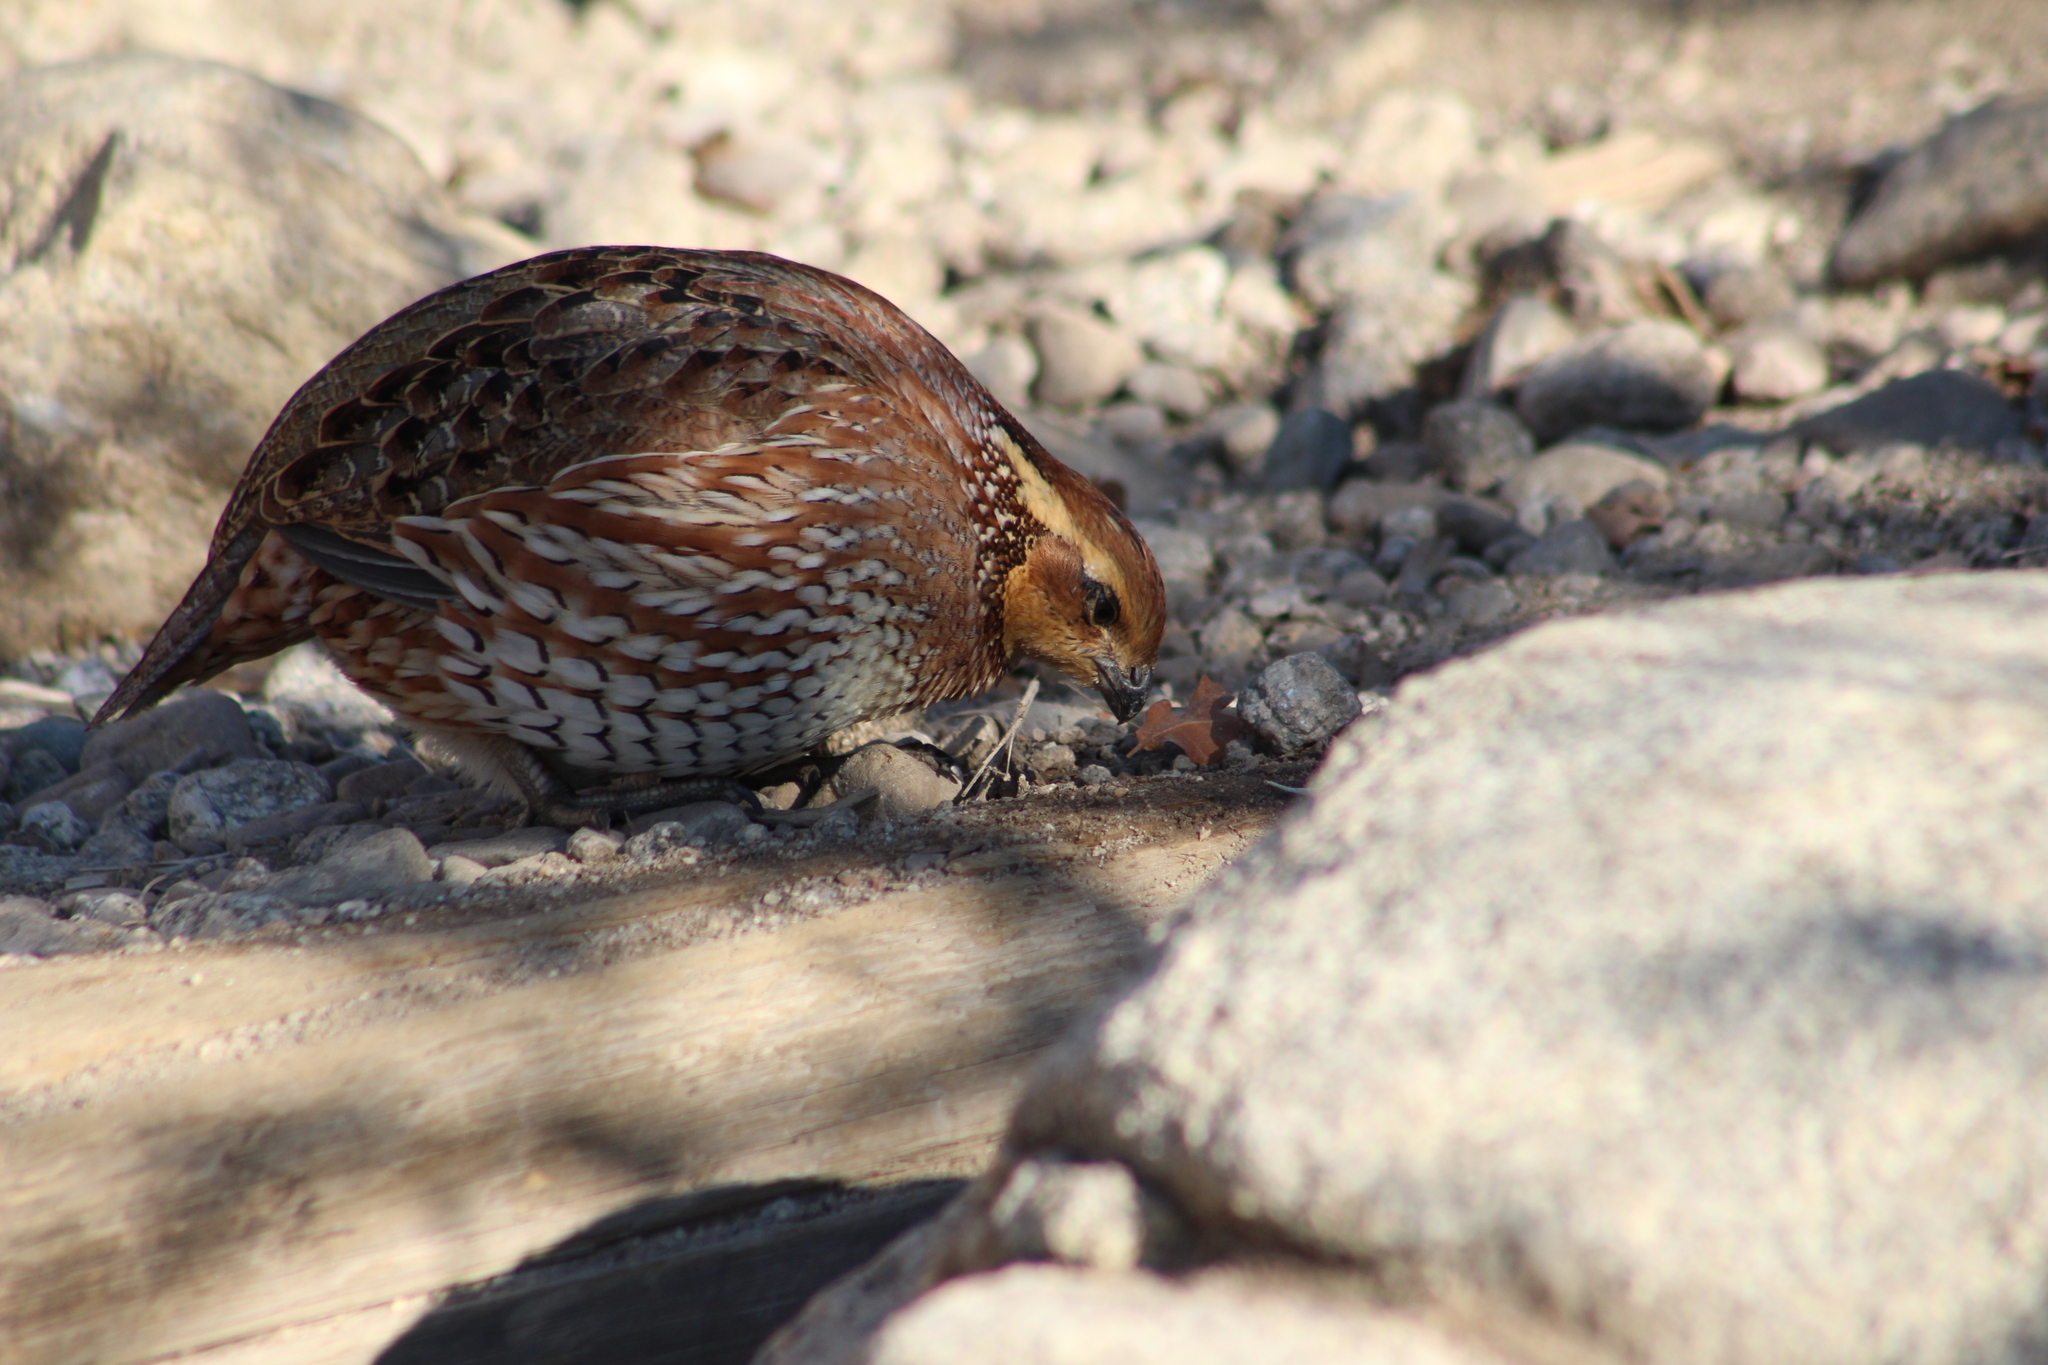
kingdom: Animalia
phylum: Chordata
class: Aves
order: Galliformes
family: Odontophoridae
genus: Colinus
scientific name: Colinus virginianus
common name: Northern bobwhite
